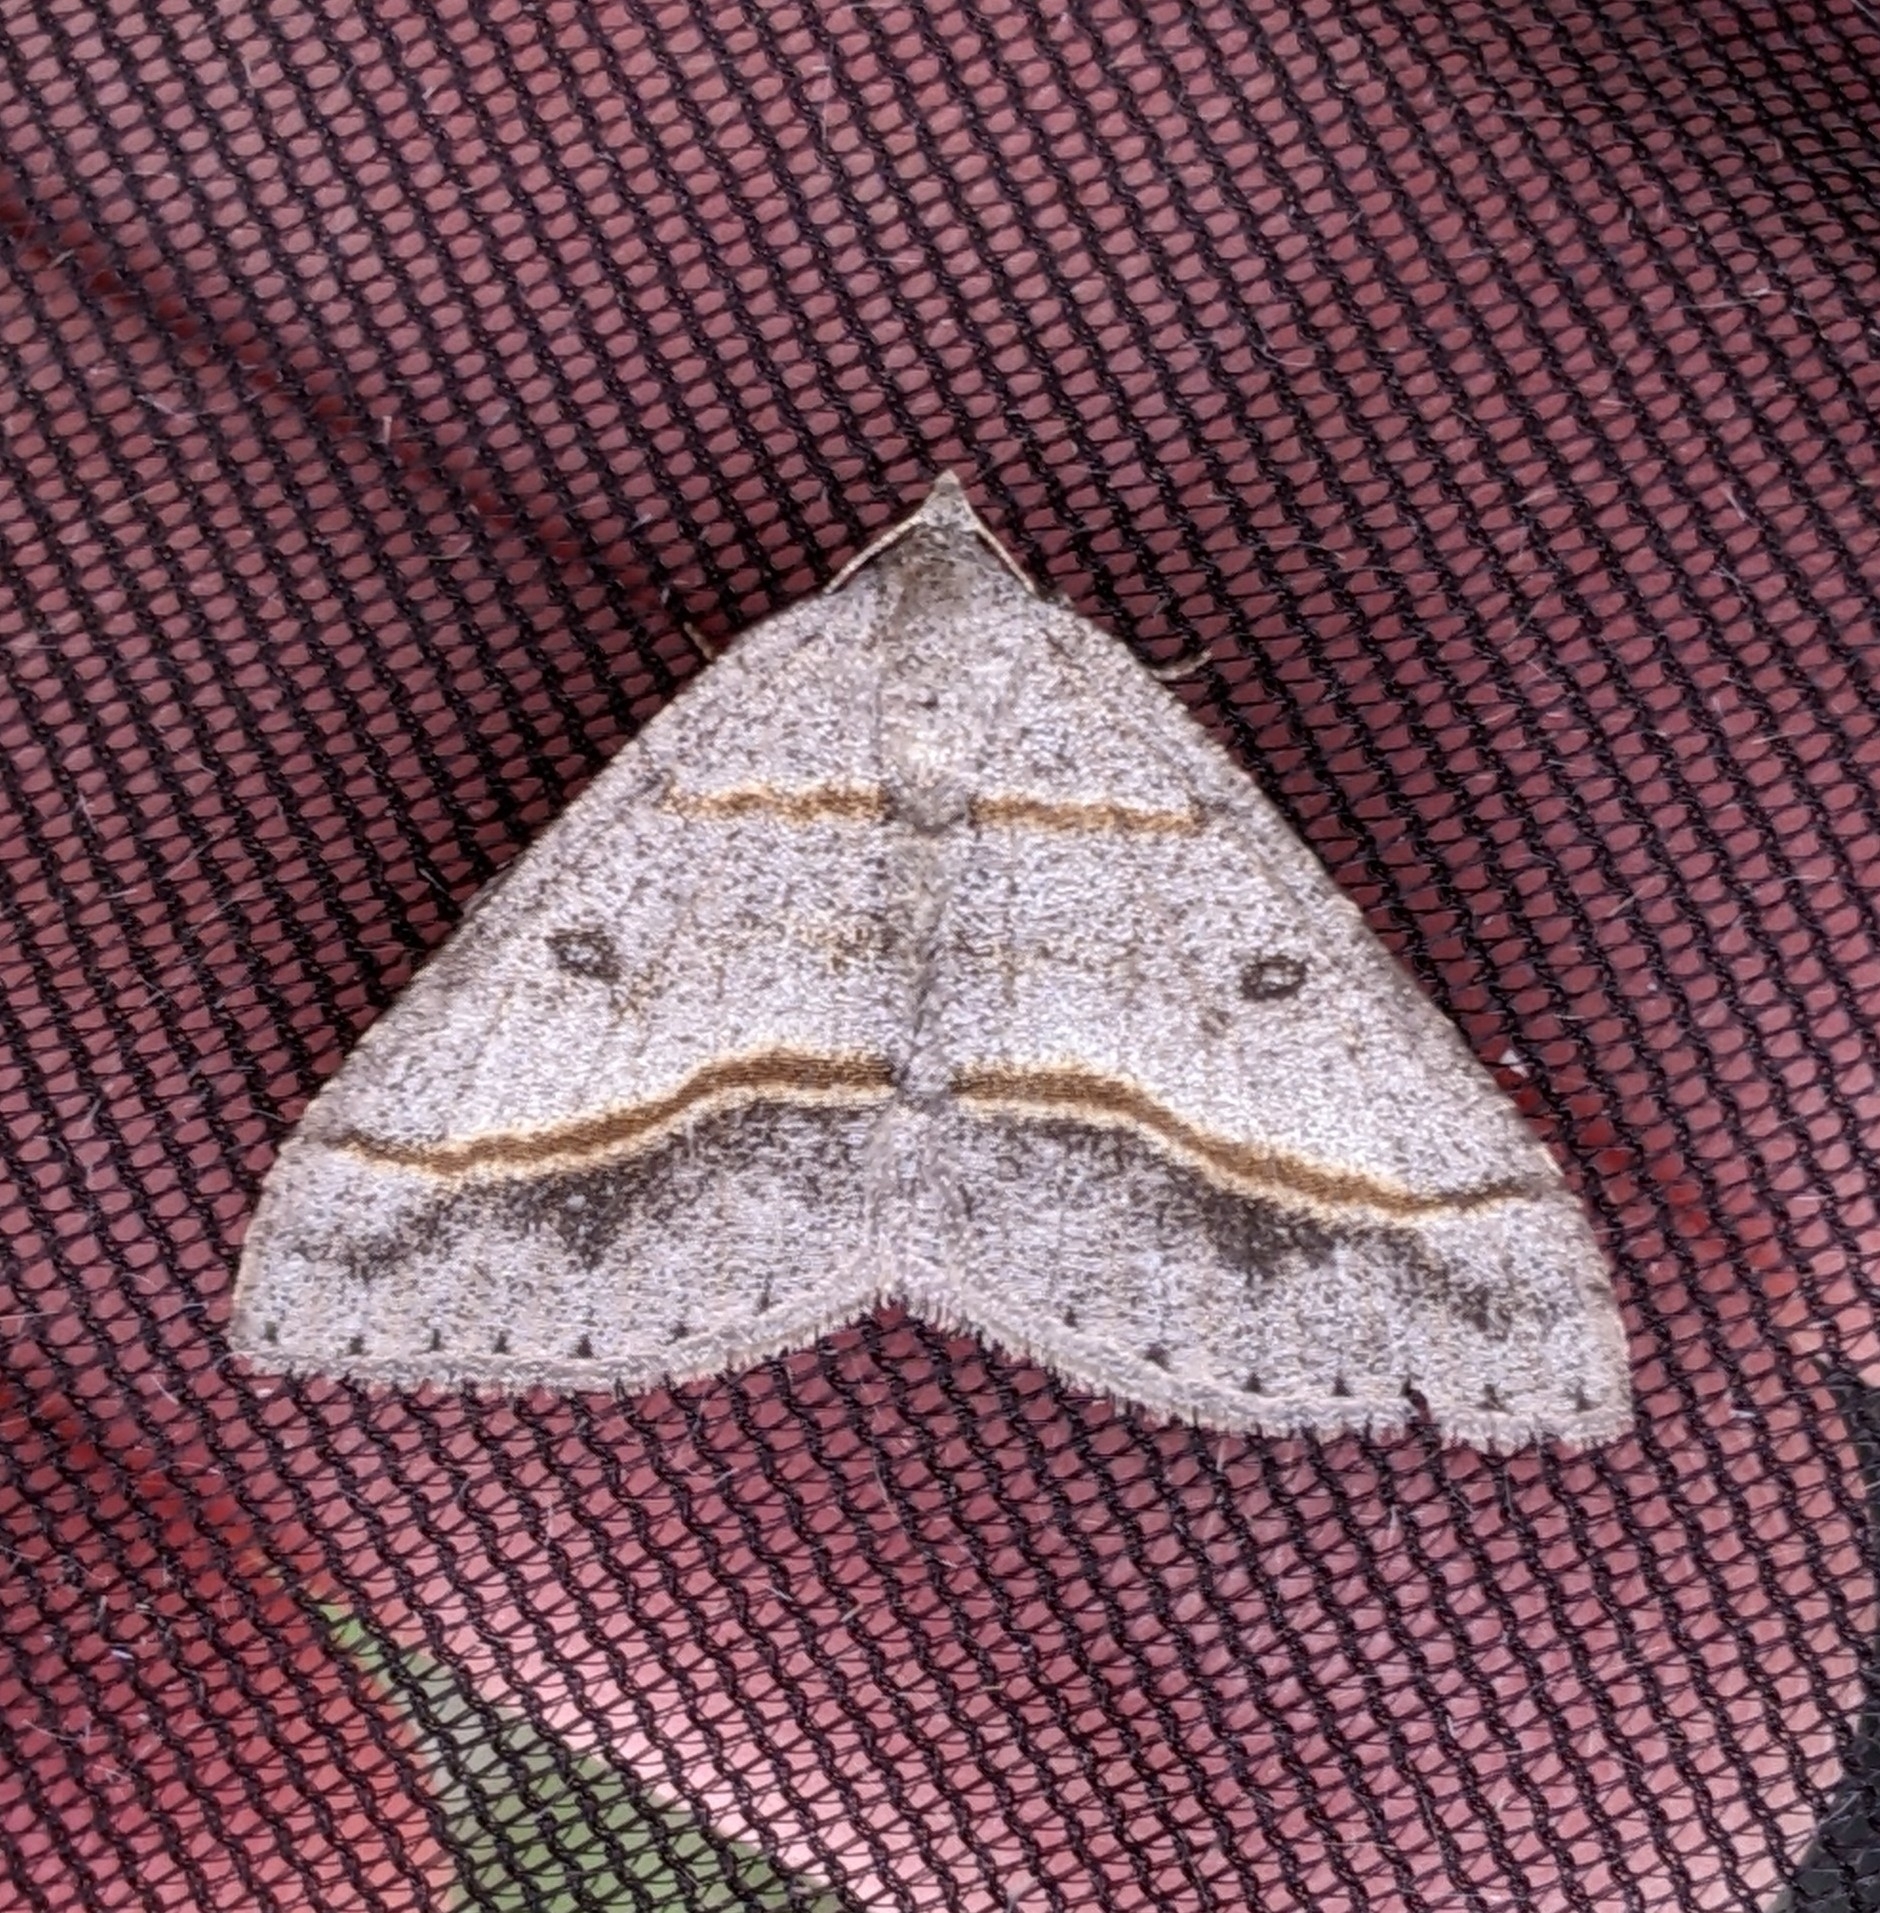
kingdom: Animalia
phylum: Arthropoda
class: Insecta
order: Lepidoptera
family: Geometridae
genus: Digrammia
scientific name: Digrammia neptaria
